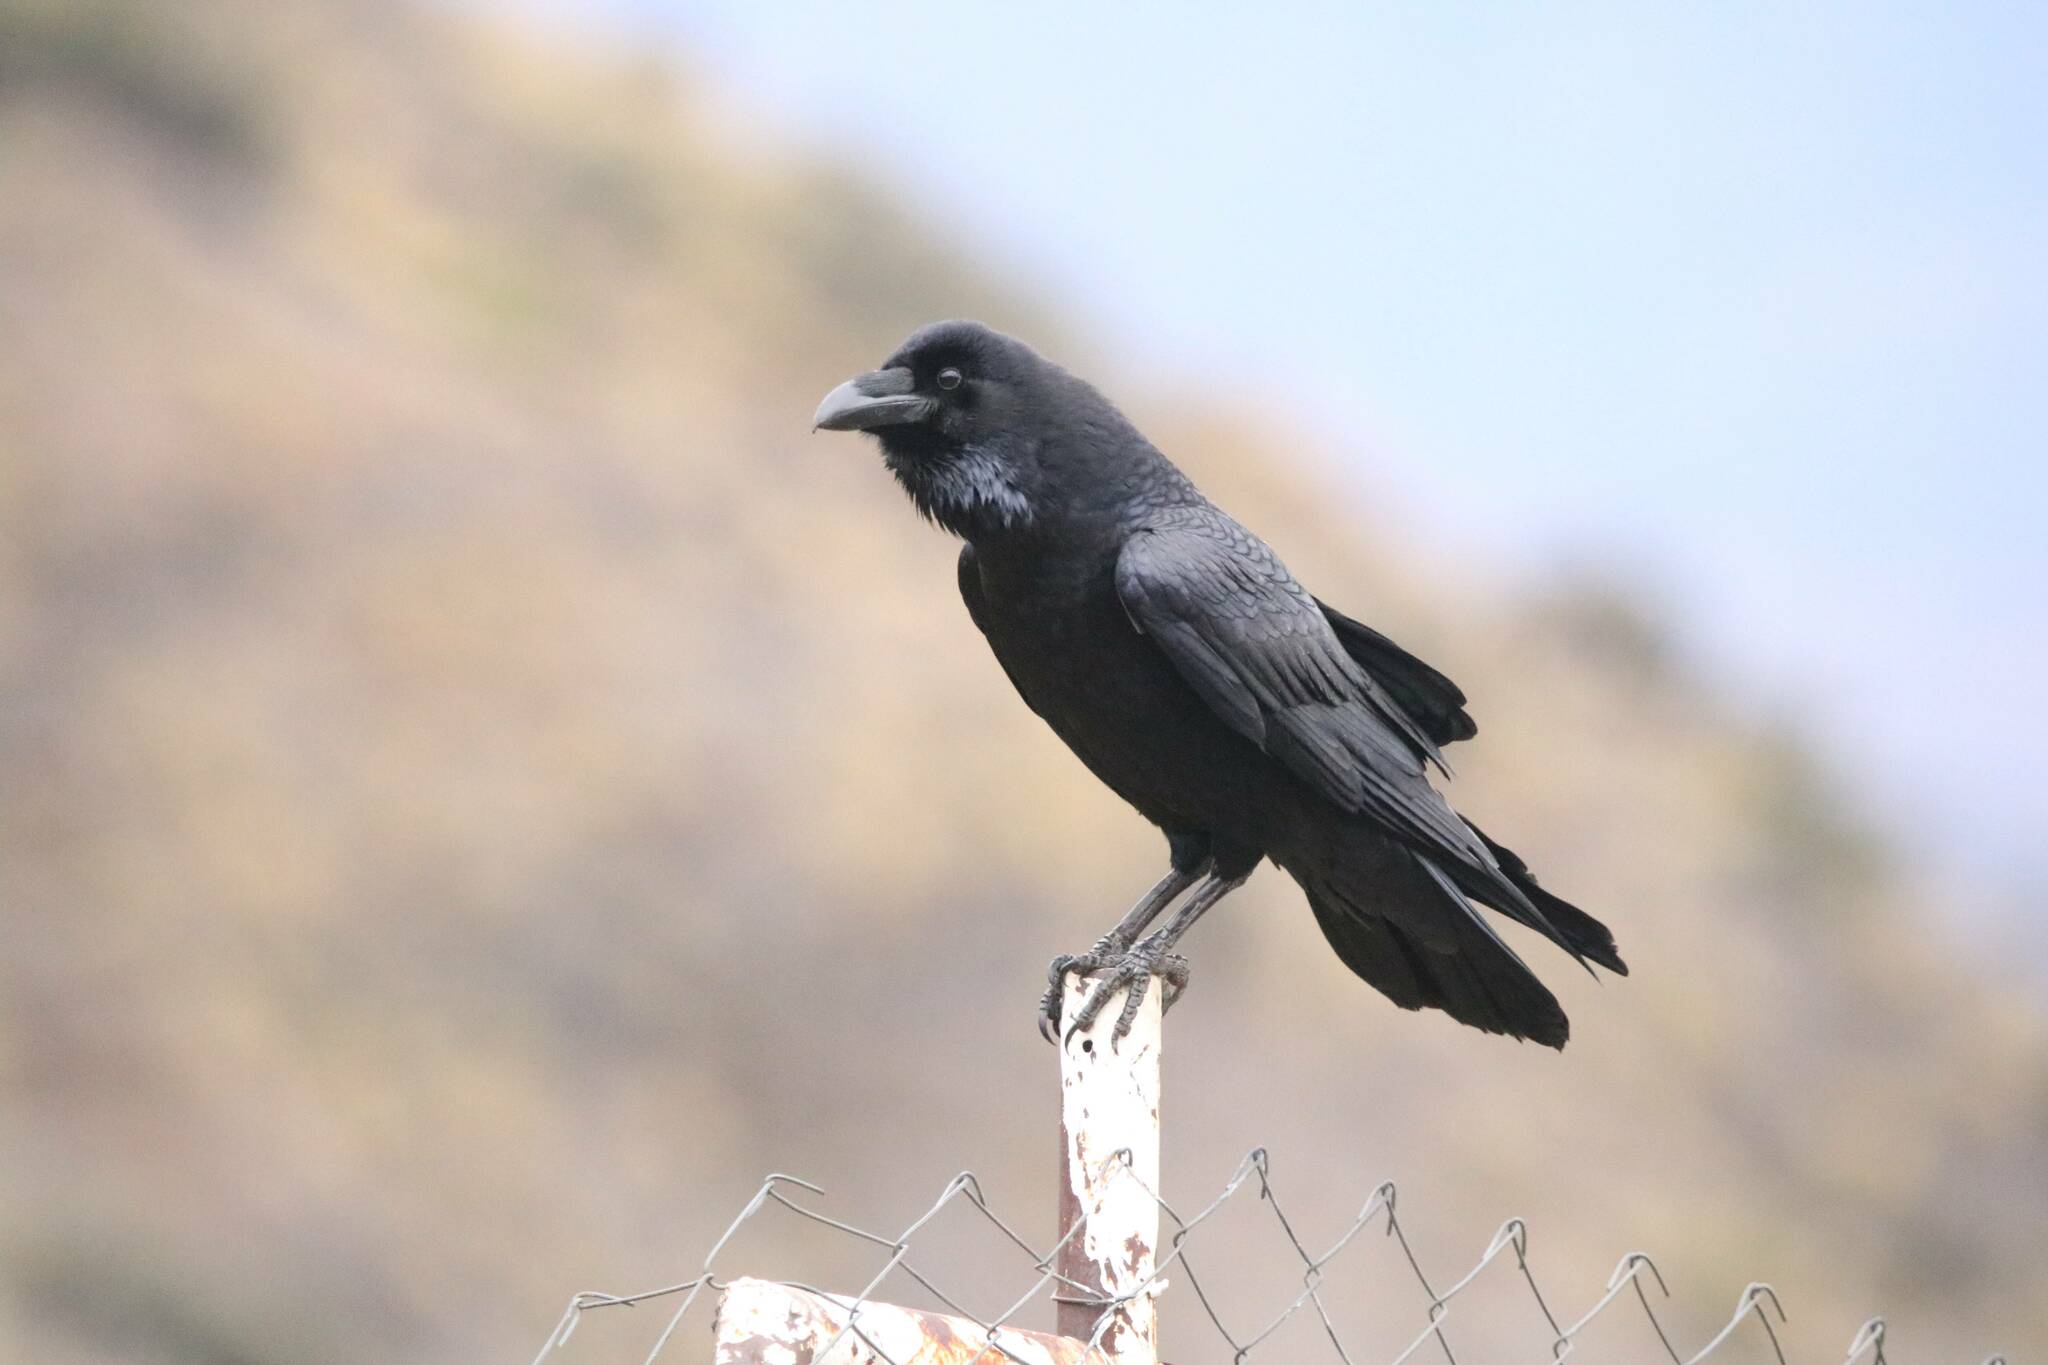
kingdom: Animalia
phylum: Chordata
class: Aves
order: Passeriformes
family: Corvidae
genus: Corvus
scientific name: Corvus corax
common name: Common raven
